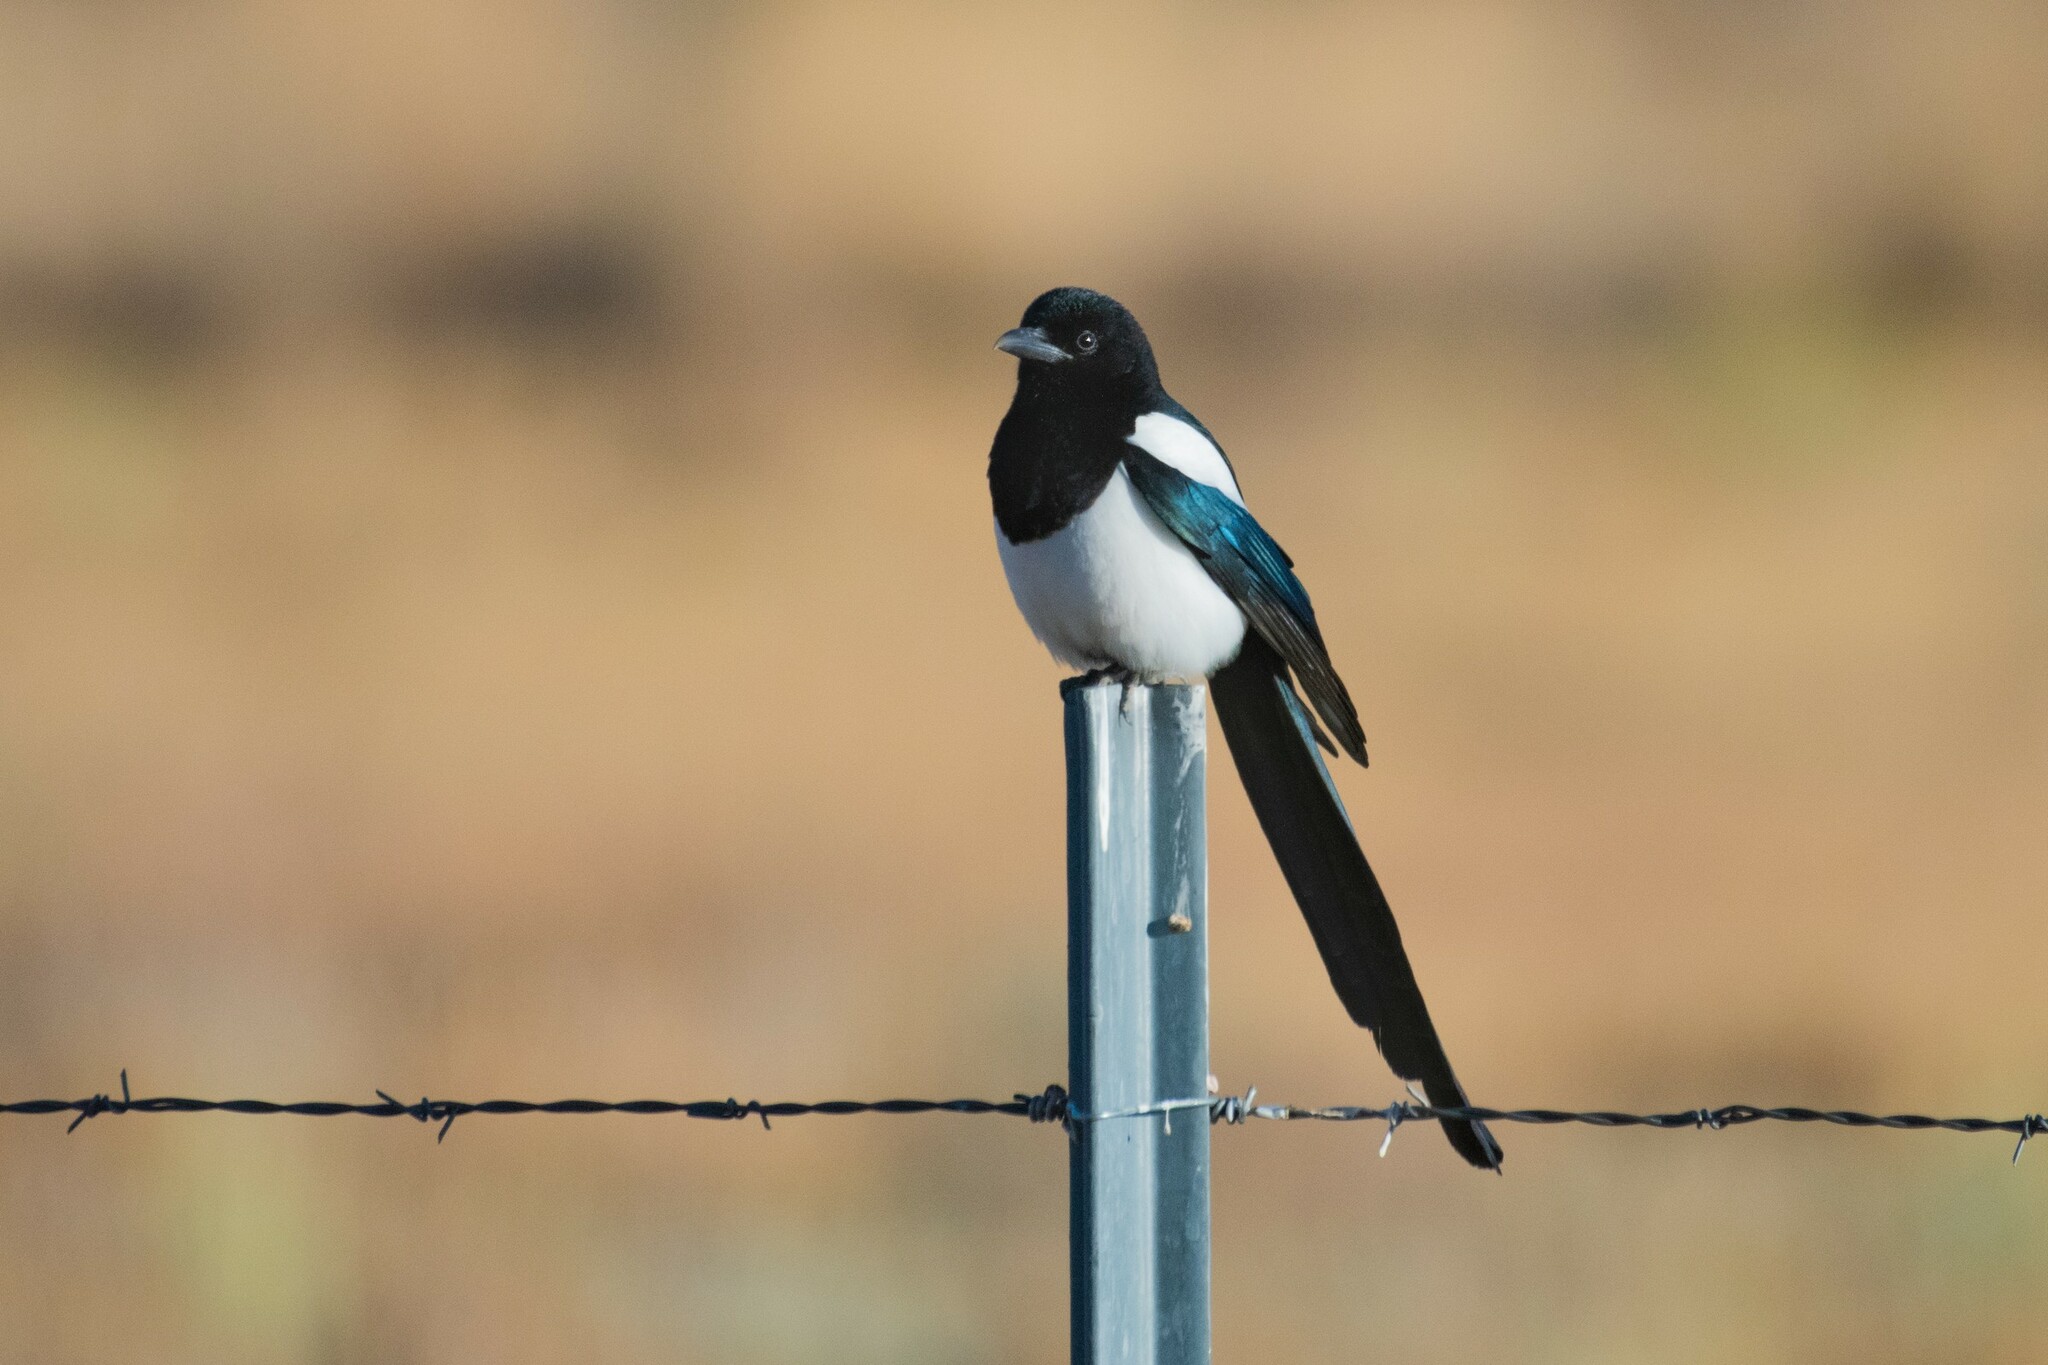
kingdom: Animalia
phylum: Chordata
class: Aves
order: Passeriformes
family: Corvidae
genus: Pica
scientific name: Pica hudsonia
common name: Black-billed magpie
